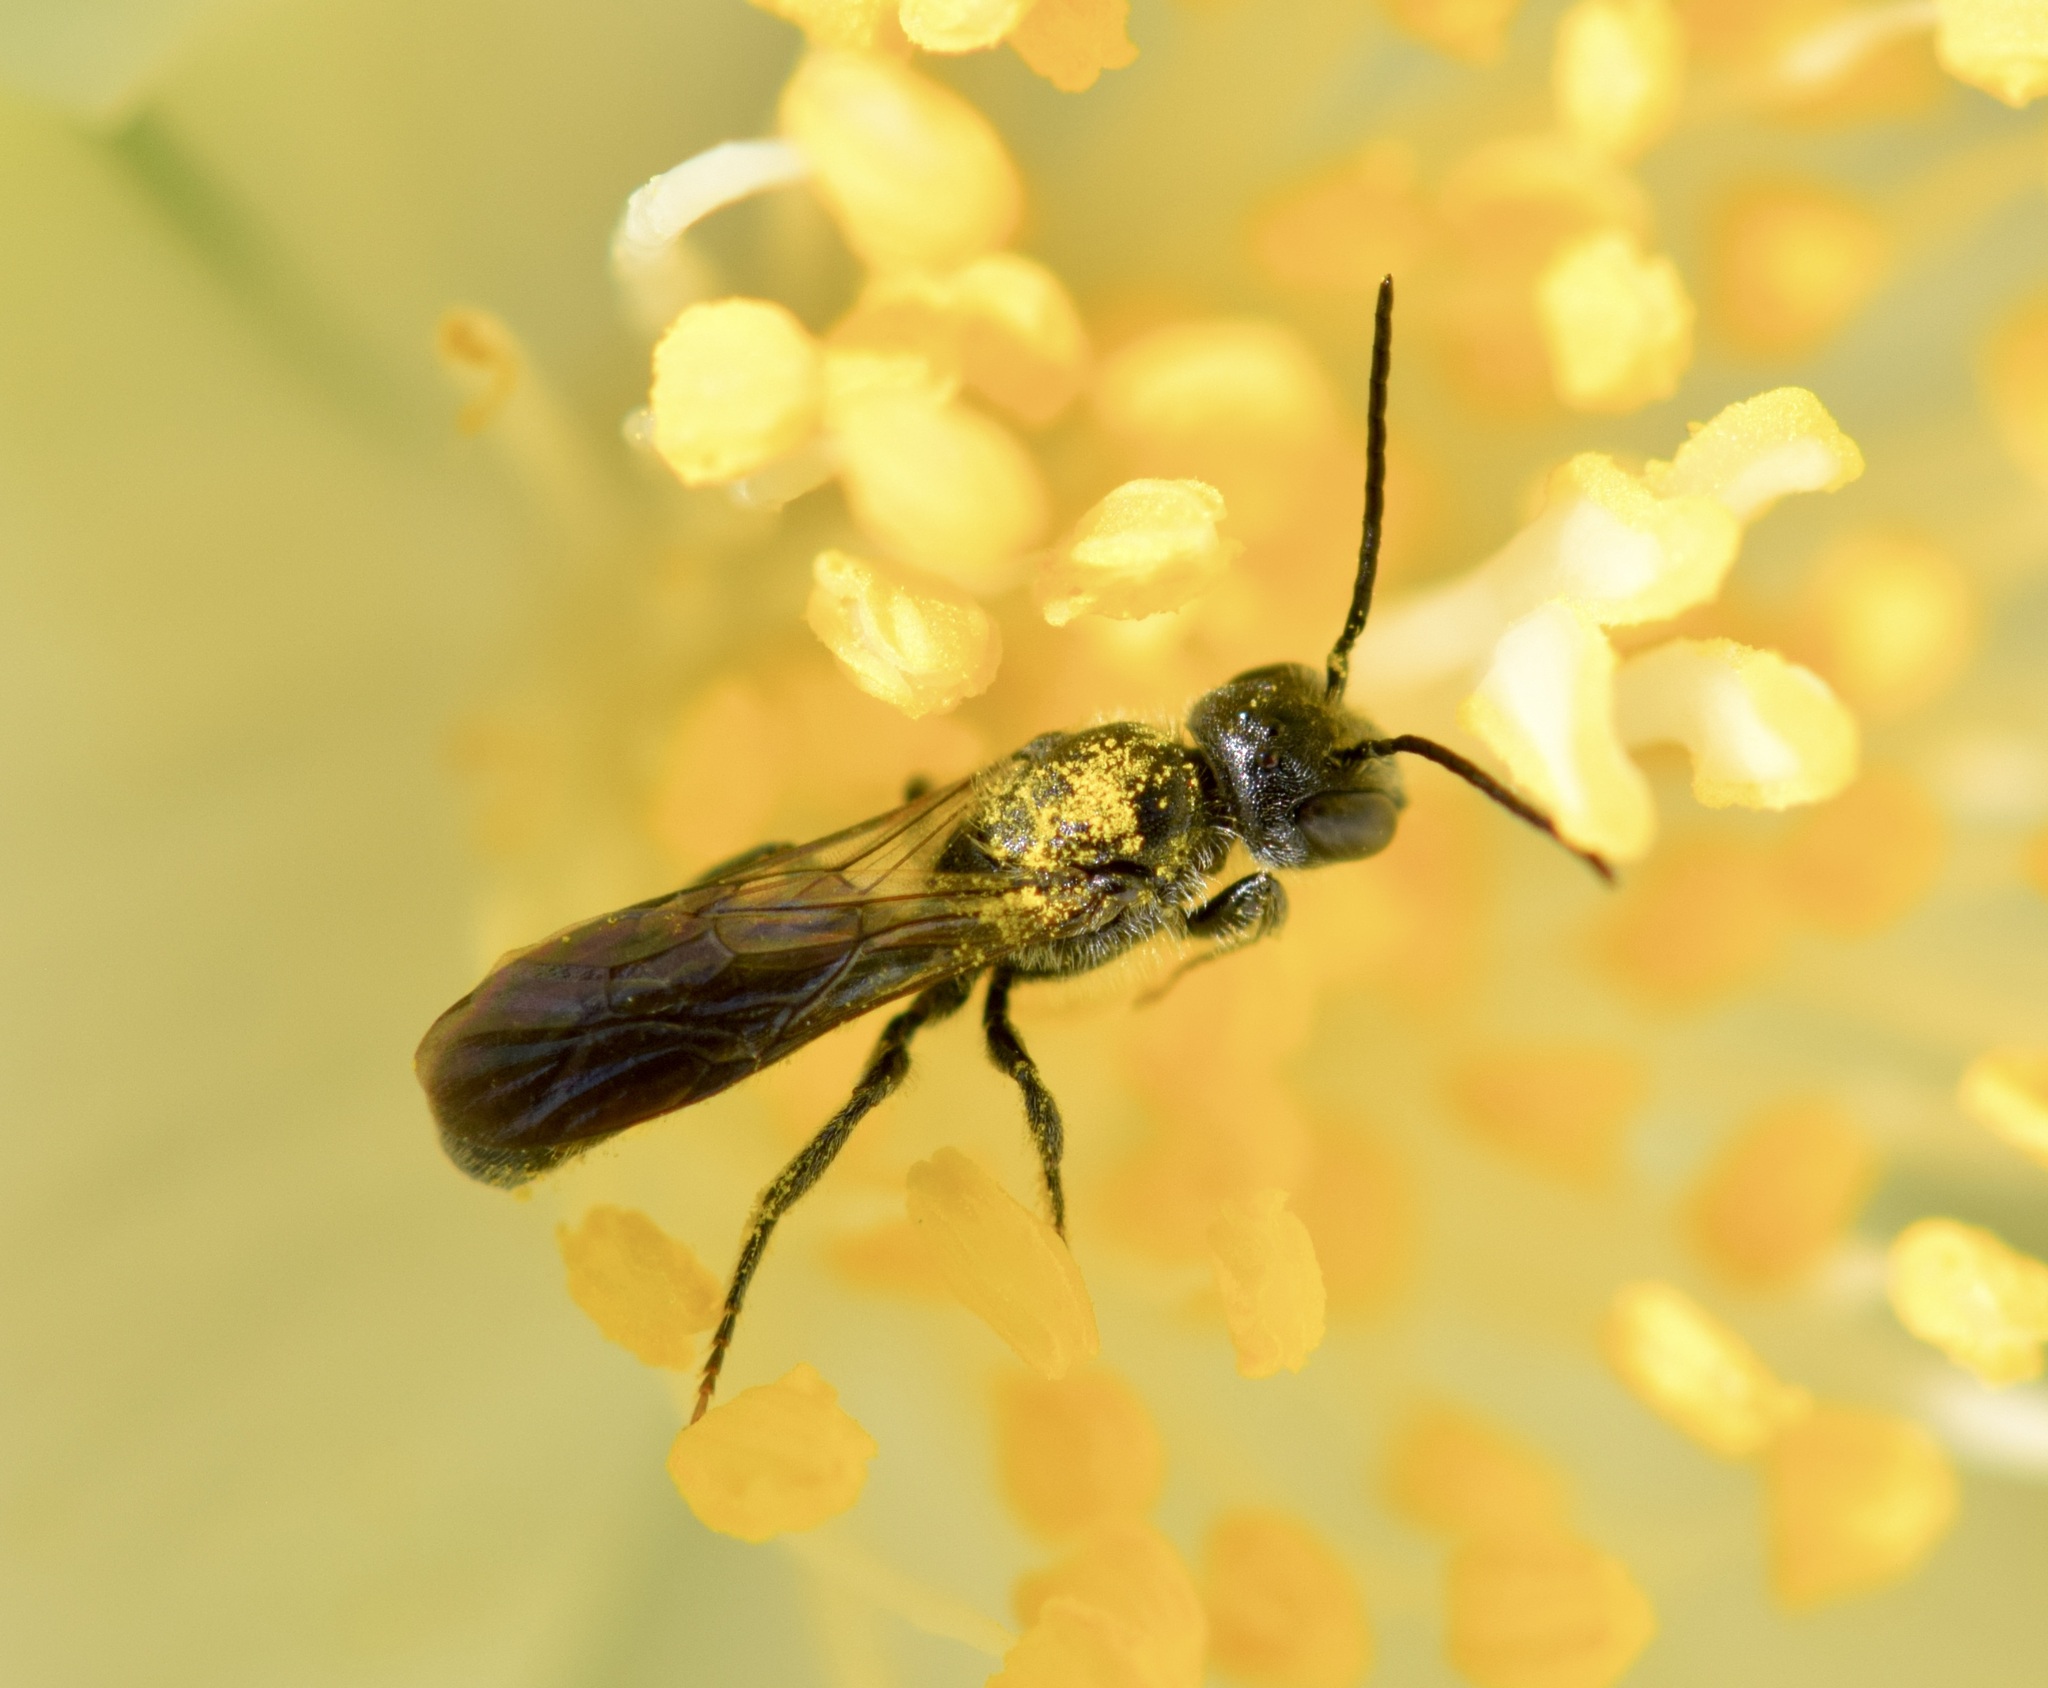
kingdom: Animalia
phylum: Arthropoda
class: Insecta
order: Hymenoptera
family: Megachilidae
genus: Chelostoma
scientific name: Chelostoma philadelphi
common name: Mock-orange scissor bee
